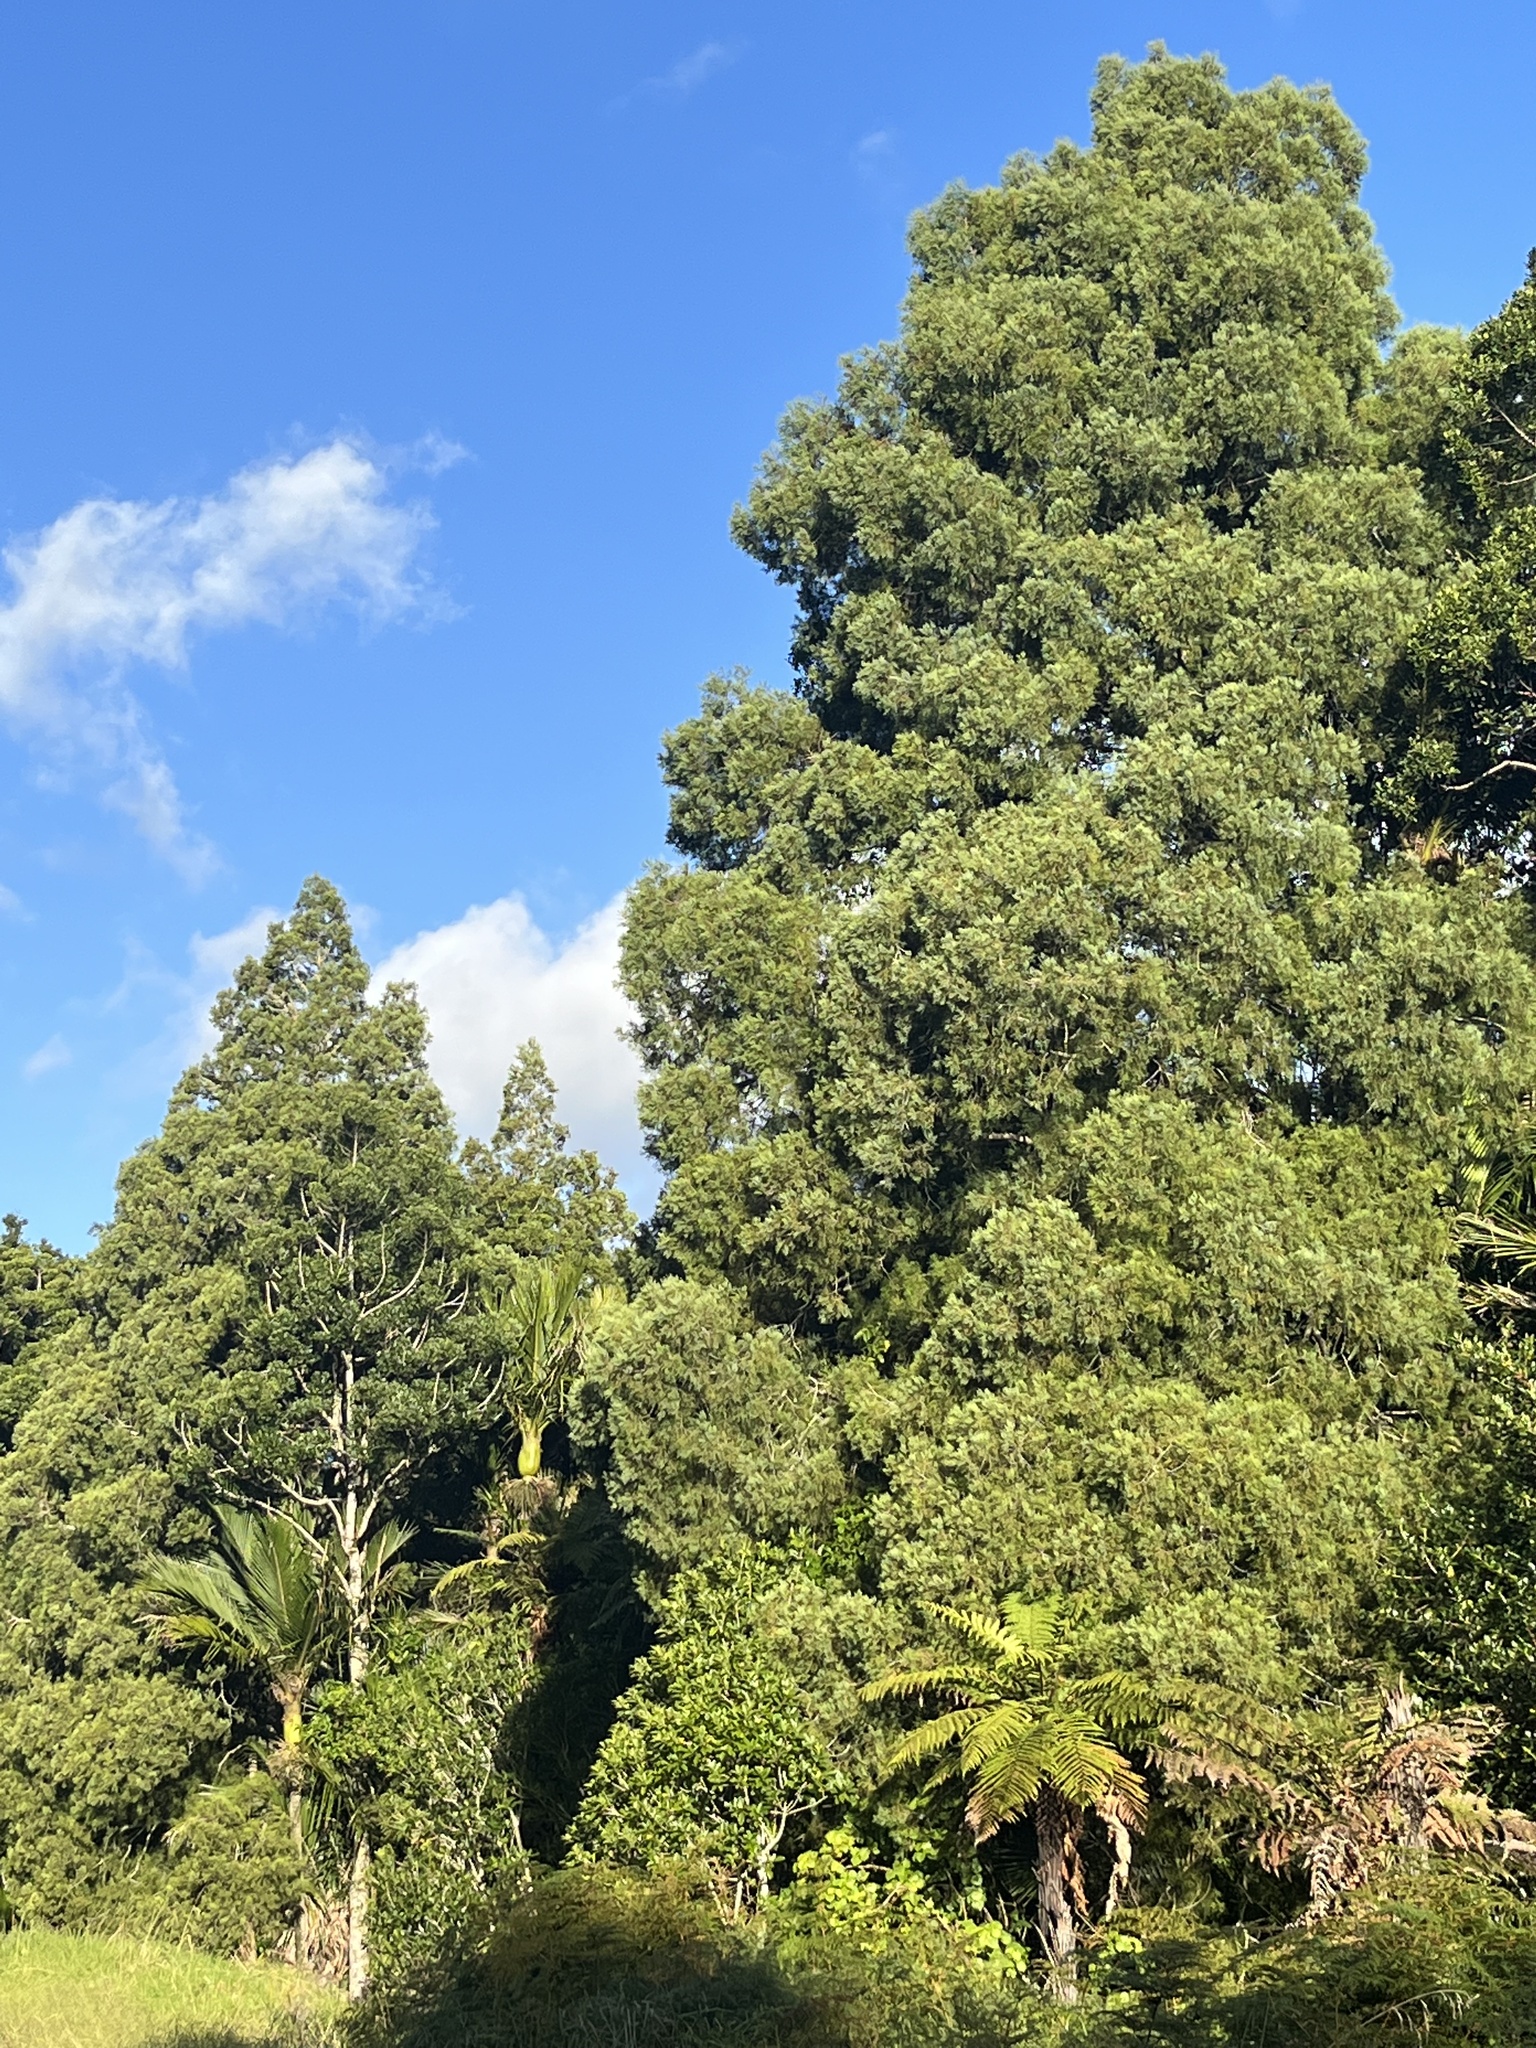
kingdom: Plantae
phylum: Tracheophyta
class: Pinopsida
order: Pinales
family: Podocarpaceae
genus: Dacrycarpus
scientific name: Dacrycarpus dacrydioides
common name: White pine
